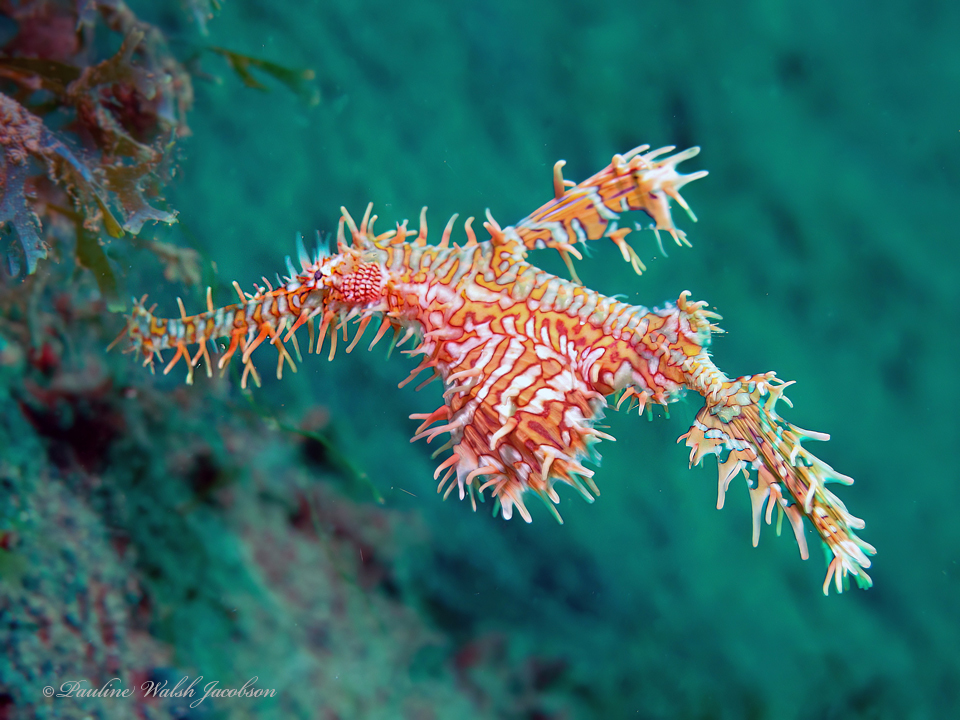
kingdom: Animalia
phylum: Chordata
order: Syngnathiformes
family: Solenostomidae
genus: Solenostomus
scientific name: Solenostomus paradoxus
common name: Ghost pipefish
